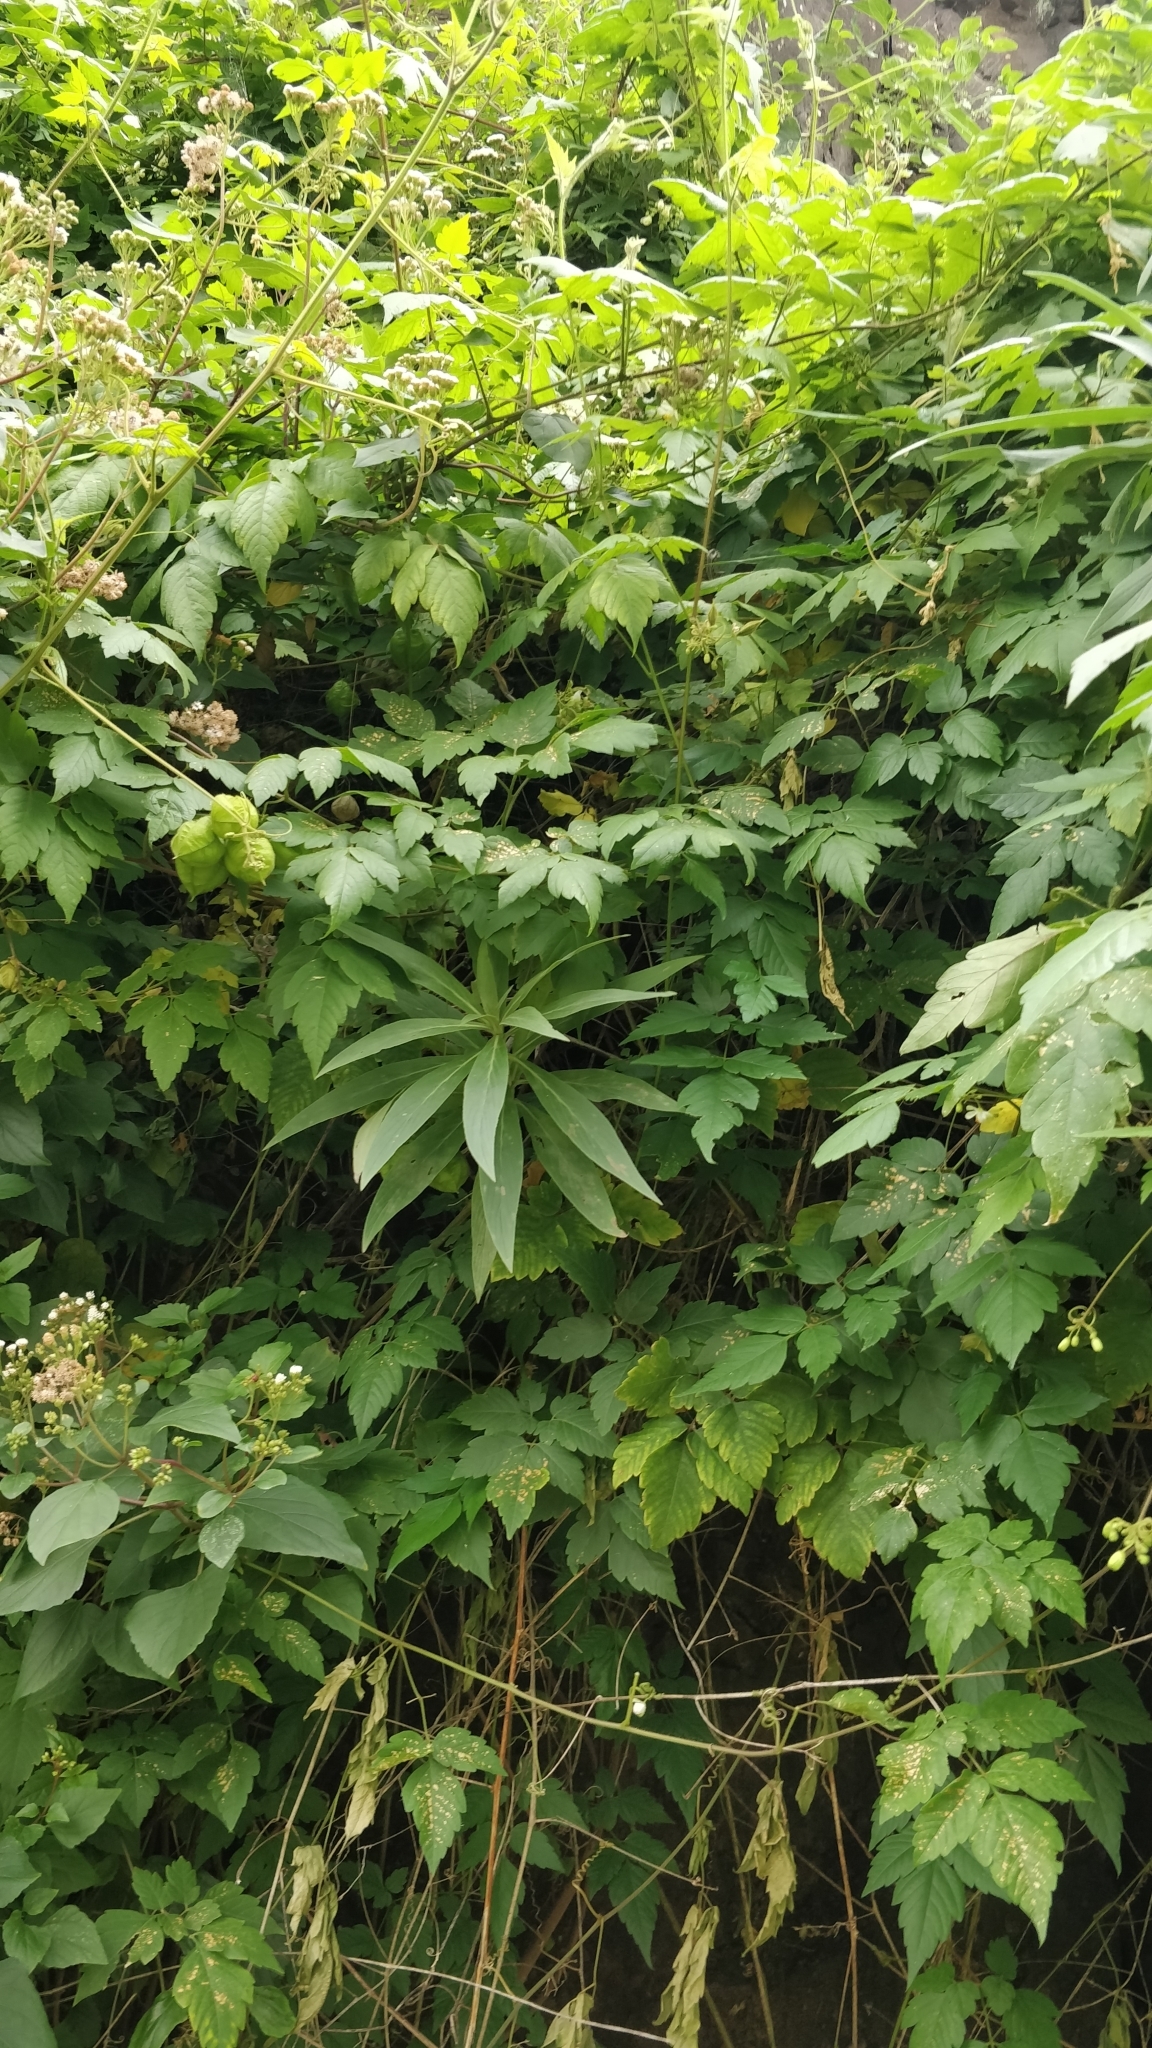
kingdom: Plantae
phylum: Tracheophyta
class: Magnoliopsida
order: Boraginales
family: Boraginaceae
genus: Echium
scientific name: Echium nervosum
